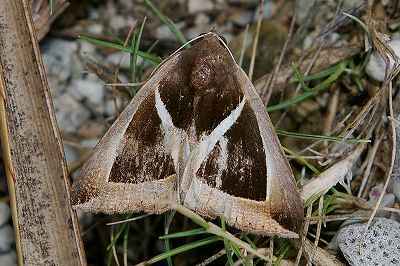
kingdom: Animalia
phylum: Arthropoda
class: Insecta
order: Lepidoptera
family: Erebidae
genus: Chalciope
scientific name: Chalciope mygdon
